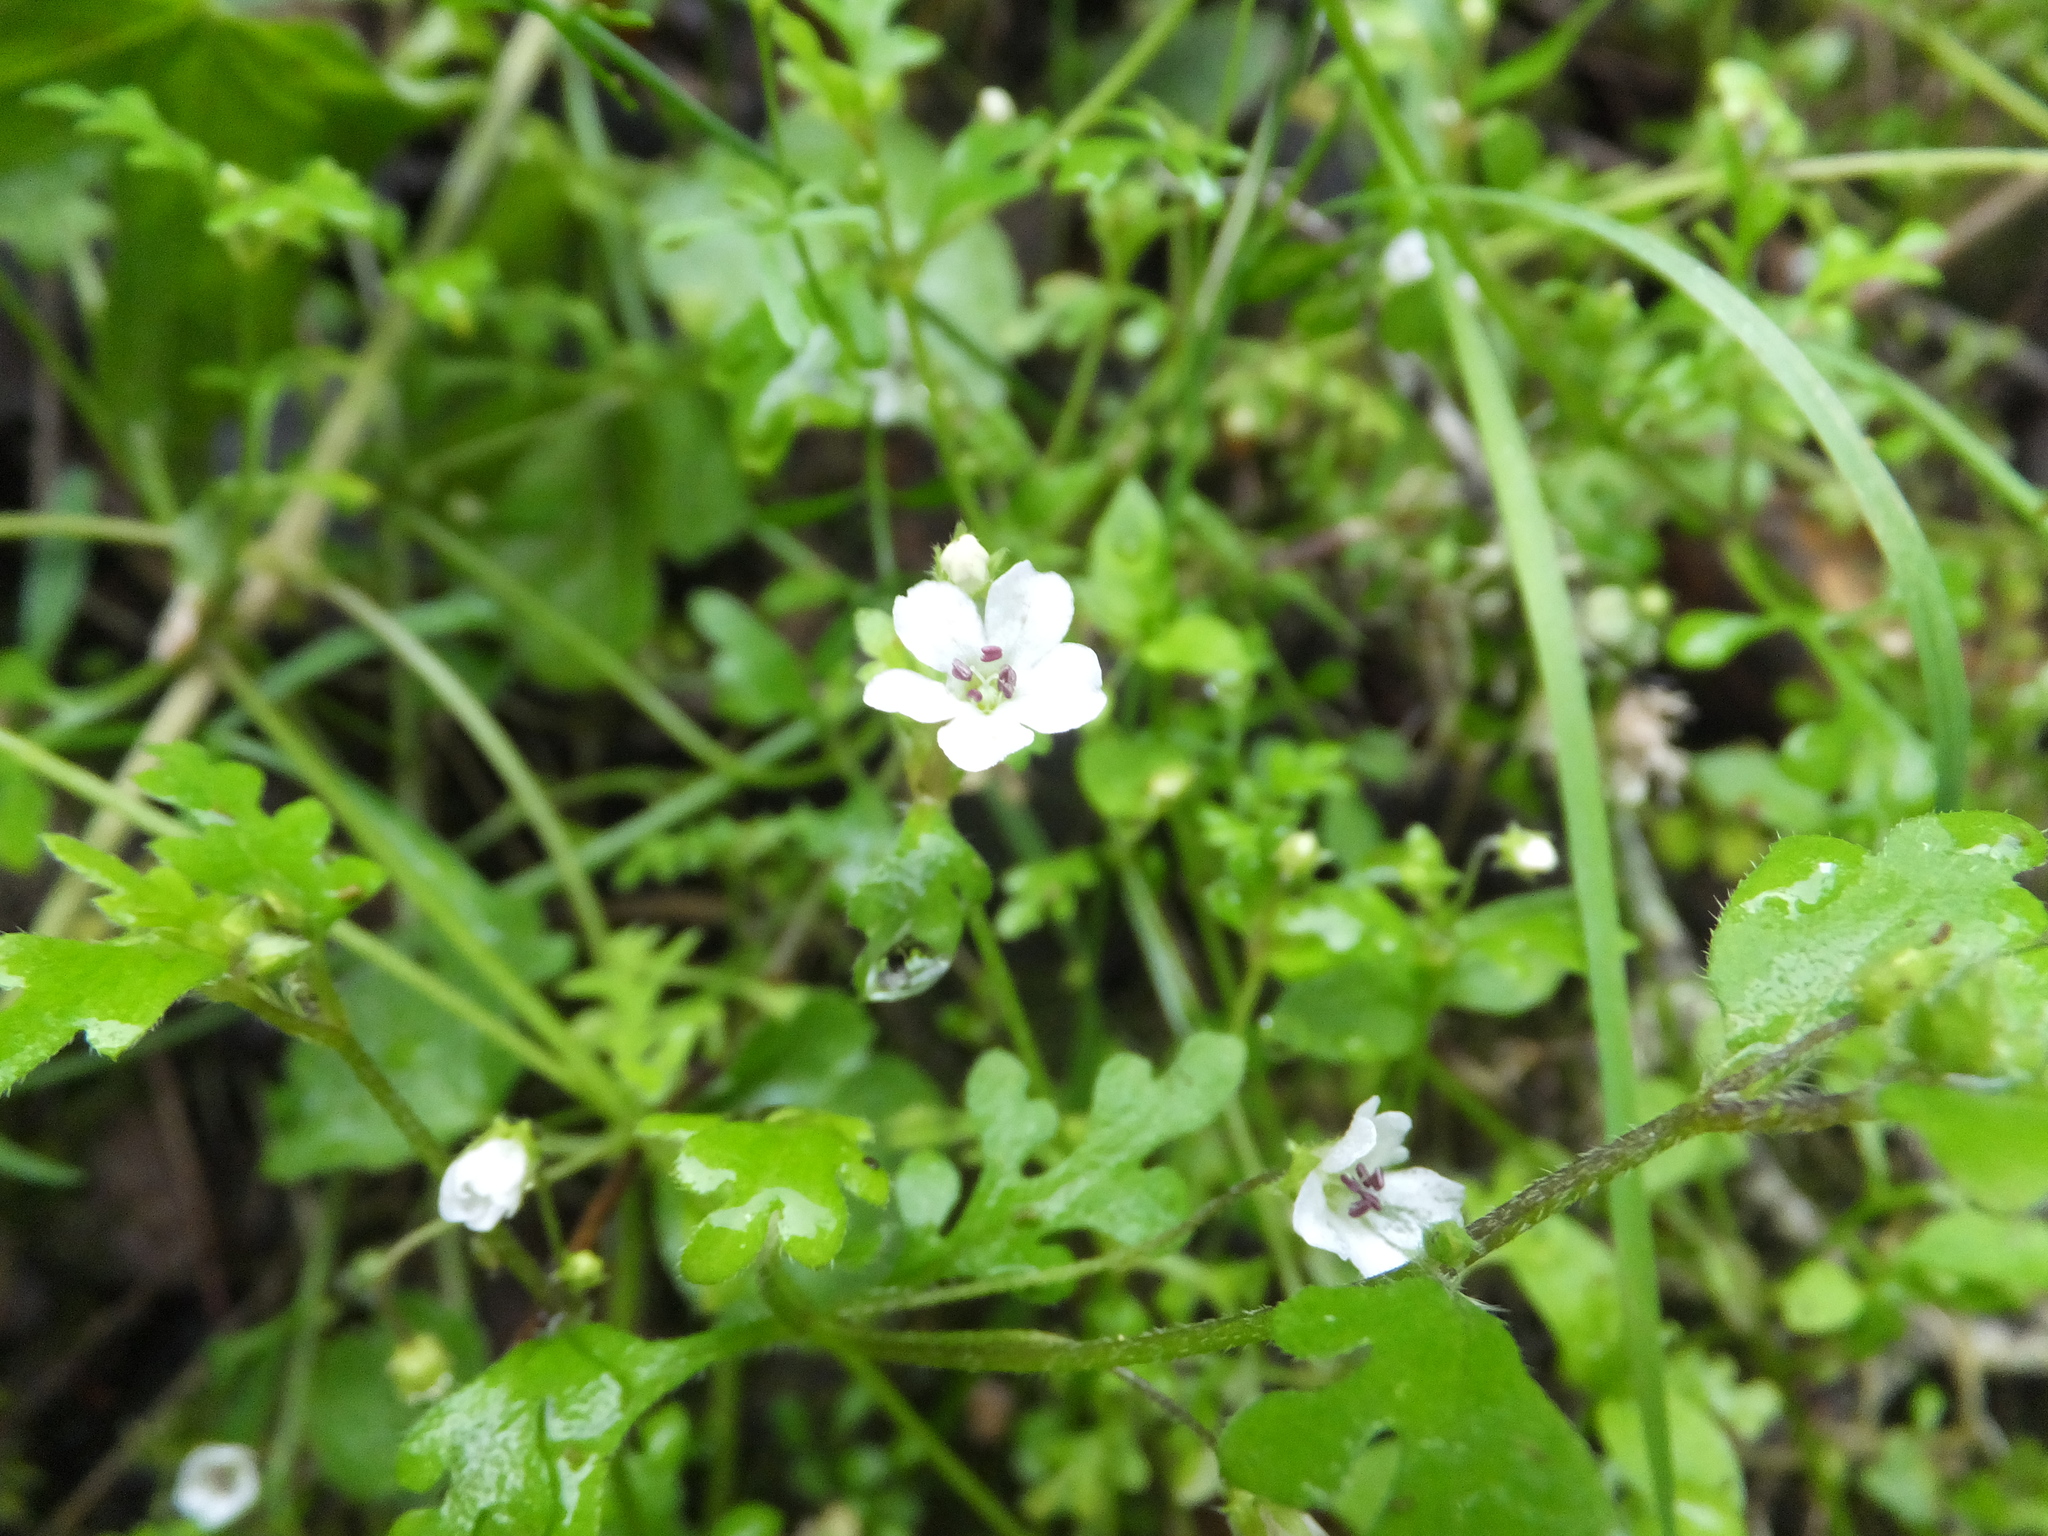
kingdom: Plantae
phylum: Tracheophyta
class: Magnoliopsida
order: Boraginales
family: Hydrophyllaceae
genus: Nemophila
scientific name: Nemophila heterophylla
